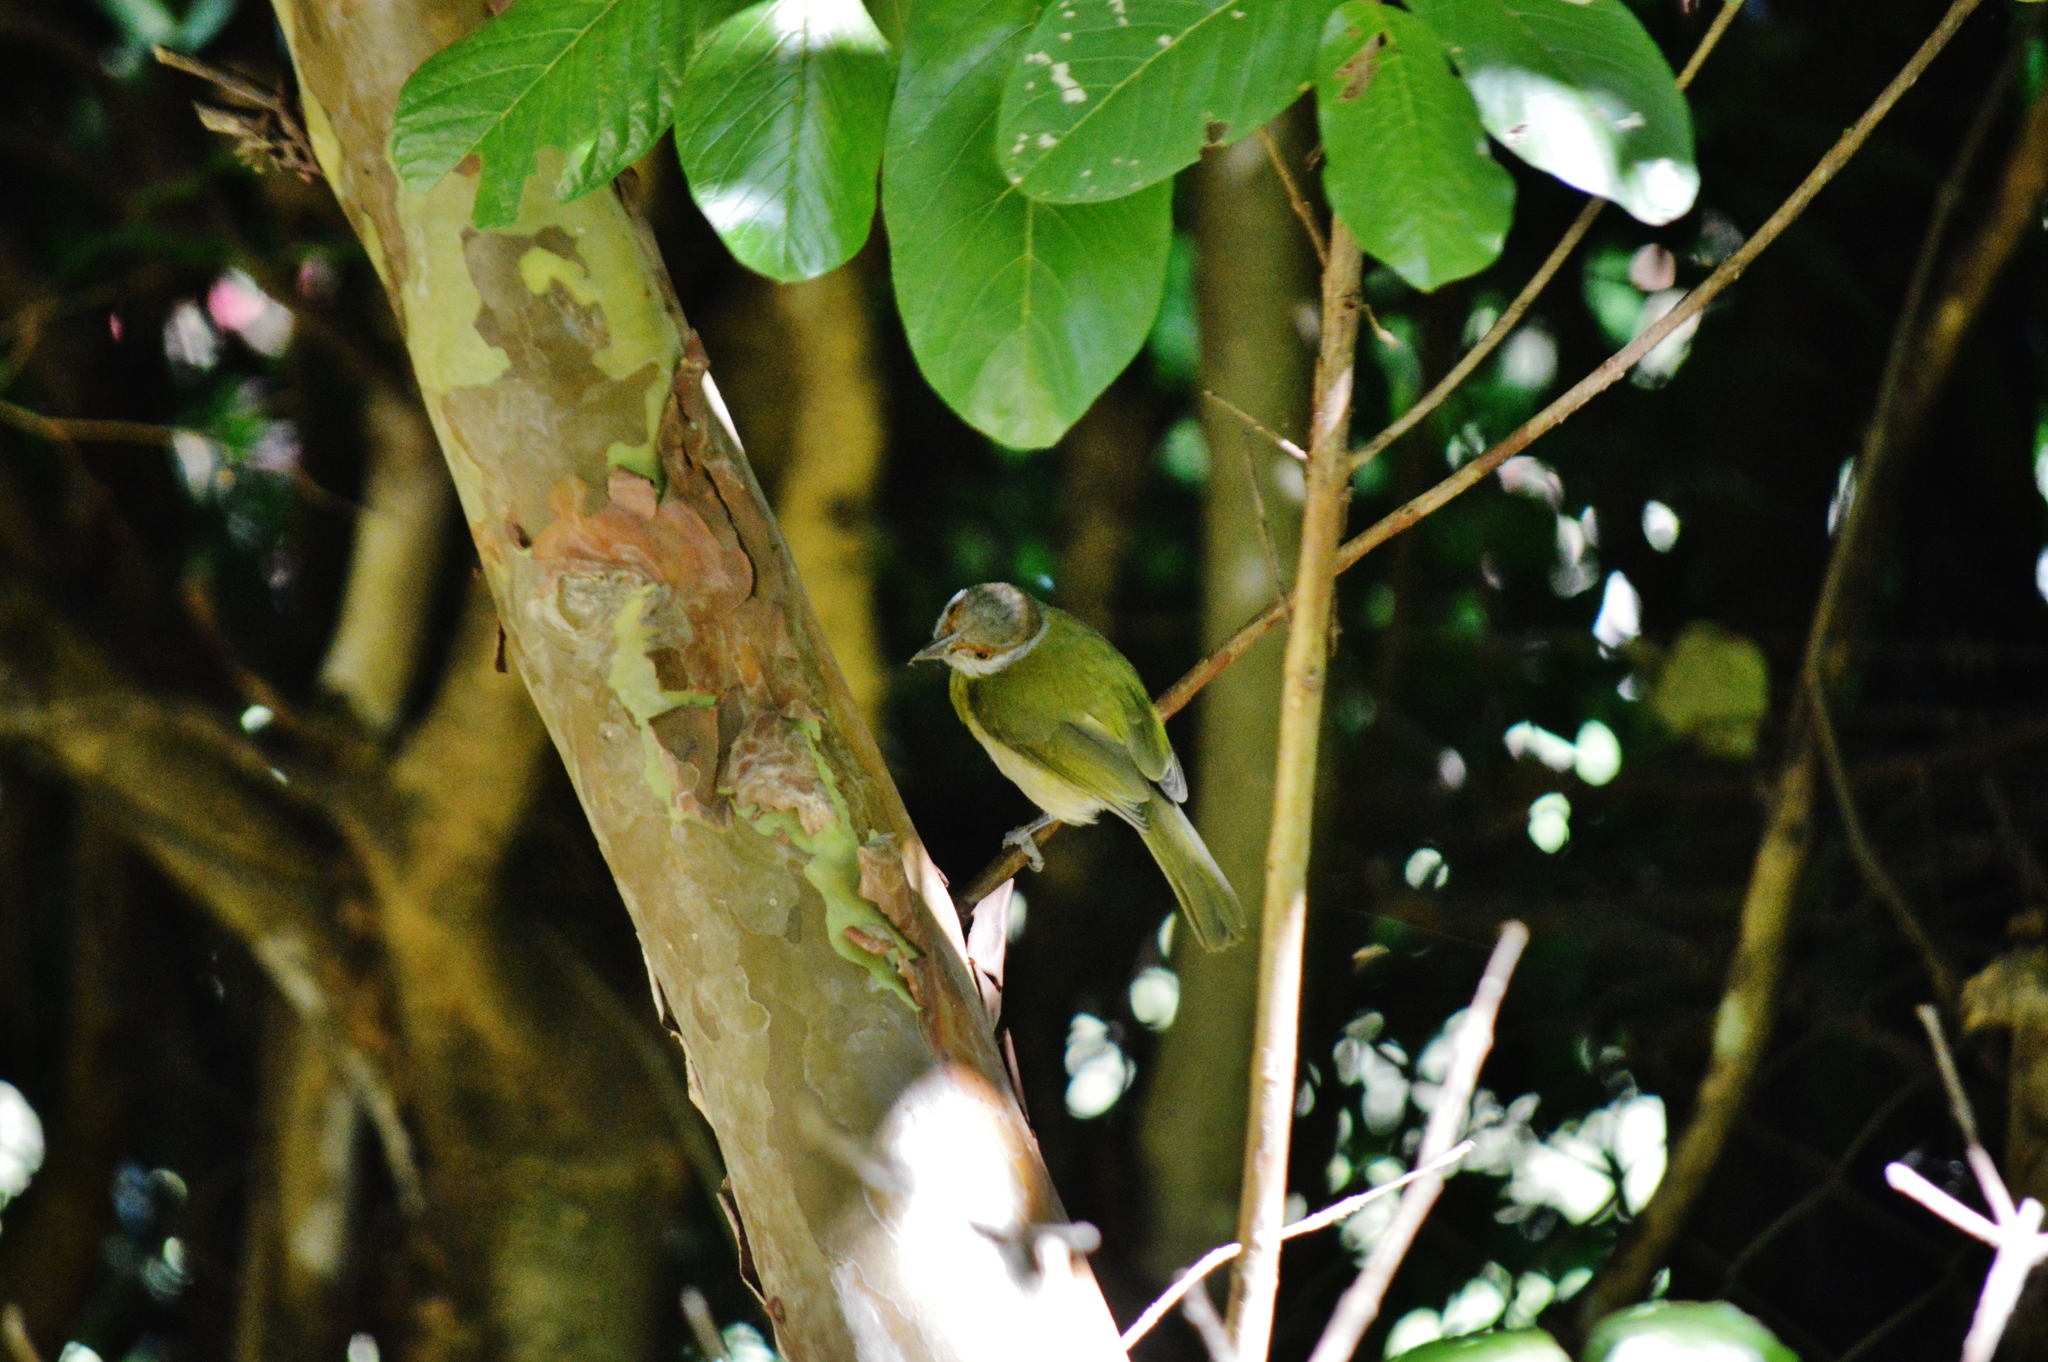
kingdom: Animalia
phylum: Chordata
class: Aves
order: Passeriformes
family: Vireonidae
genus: Cyclarhis
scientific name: Cyclarhis gujanensis
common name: Rufous-browed peppershrike
